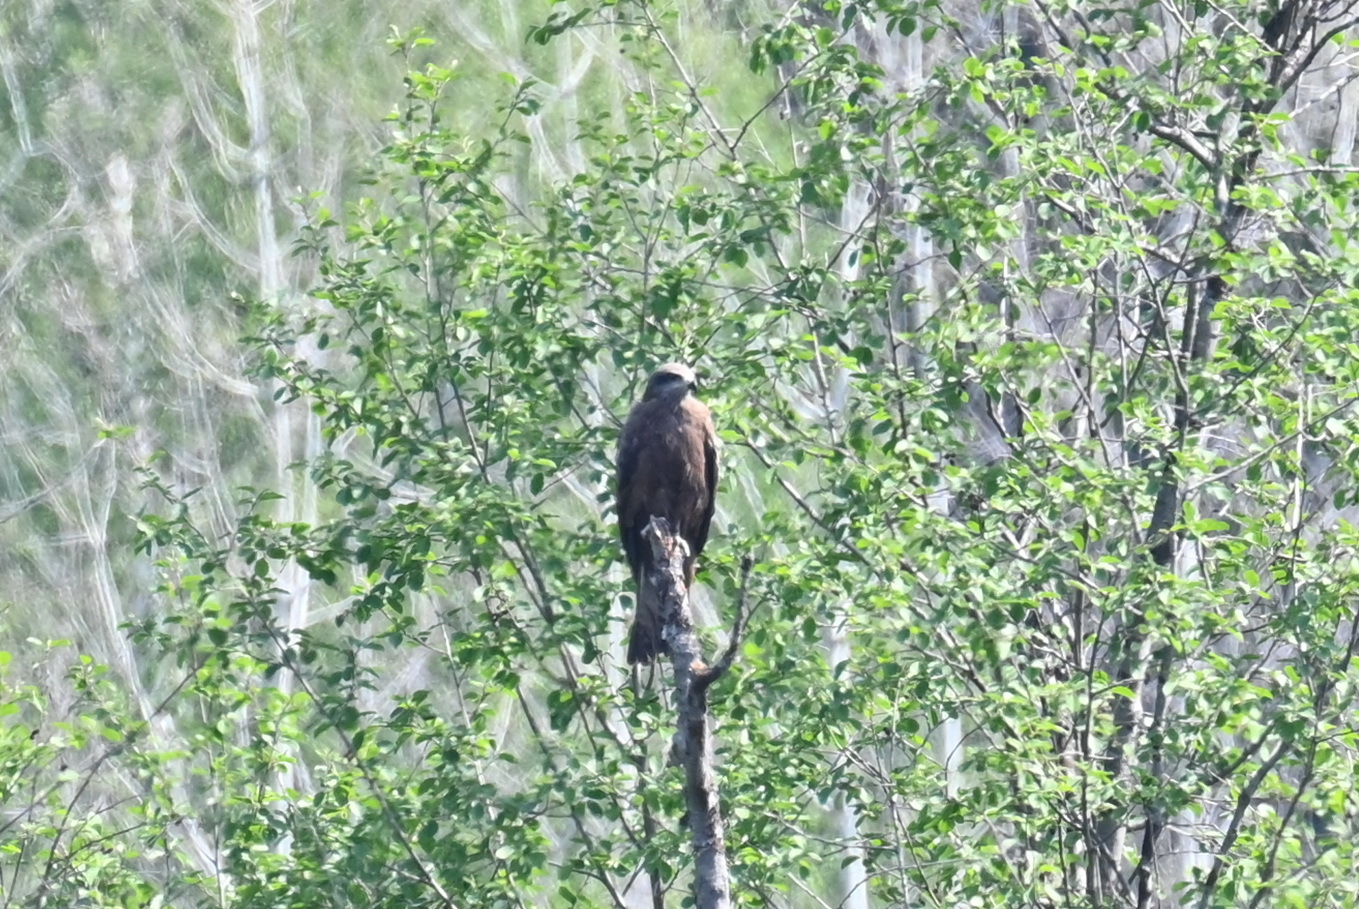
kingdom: Animalia
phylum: Chordata
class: Aves
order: Accipitriformes
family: Accipitridae
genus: Milvus
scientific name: Milvus migrans
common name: Black kite
